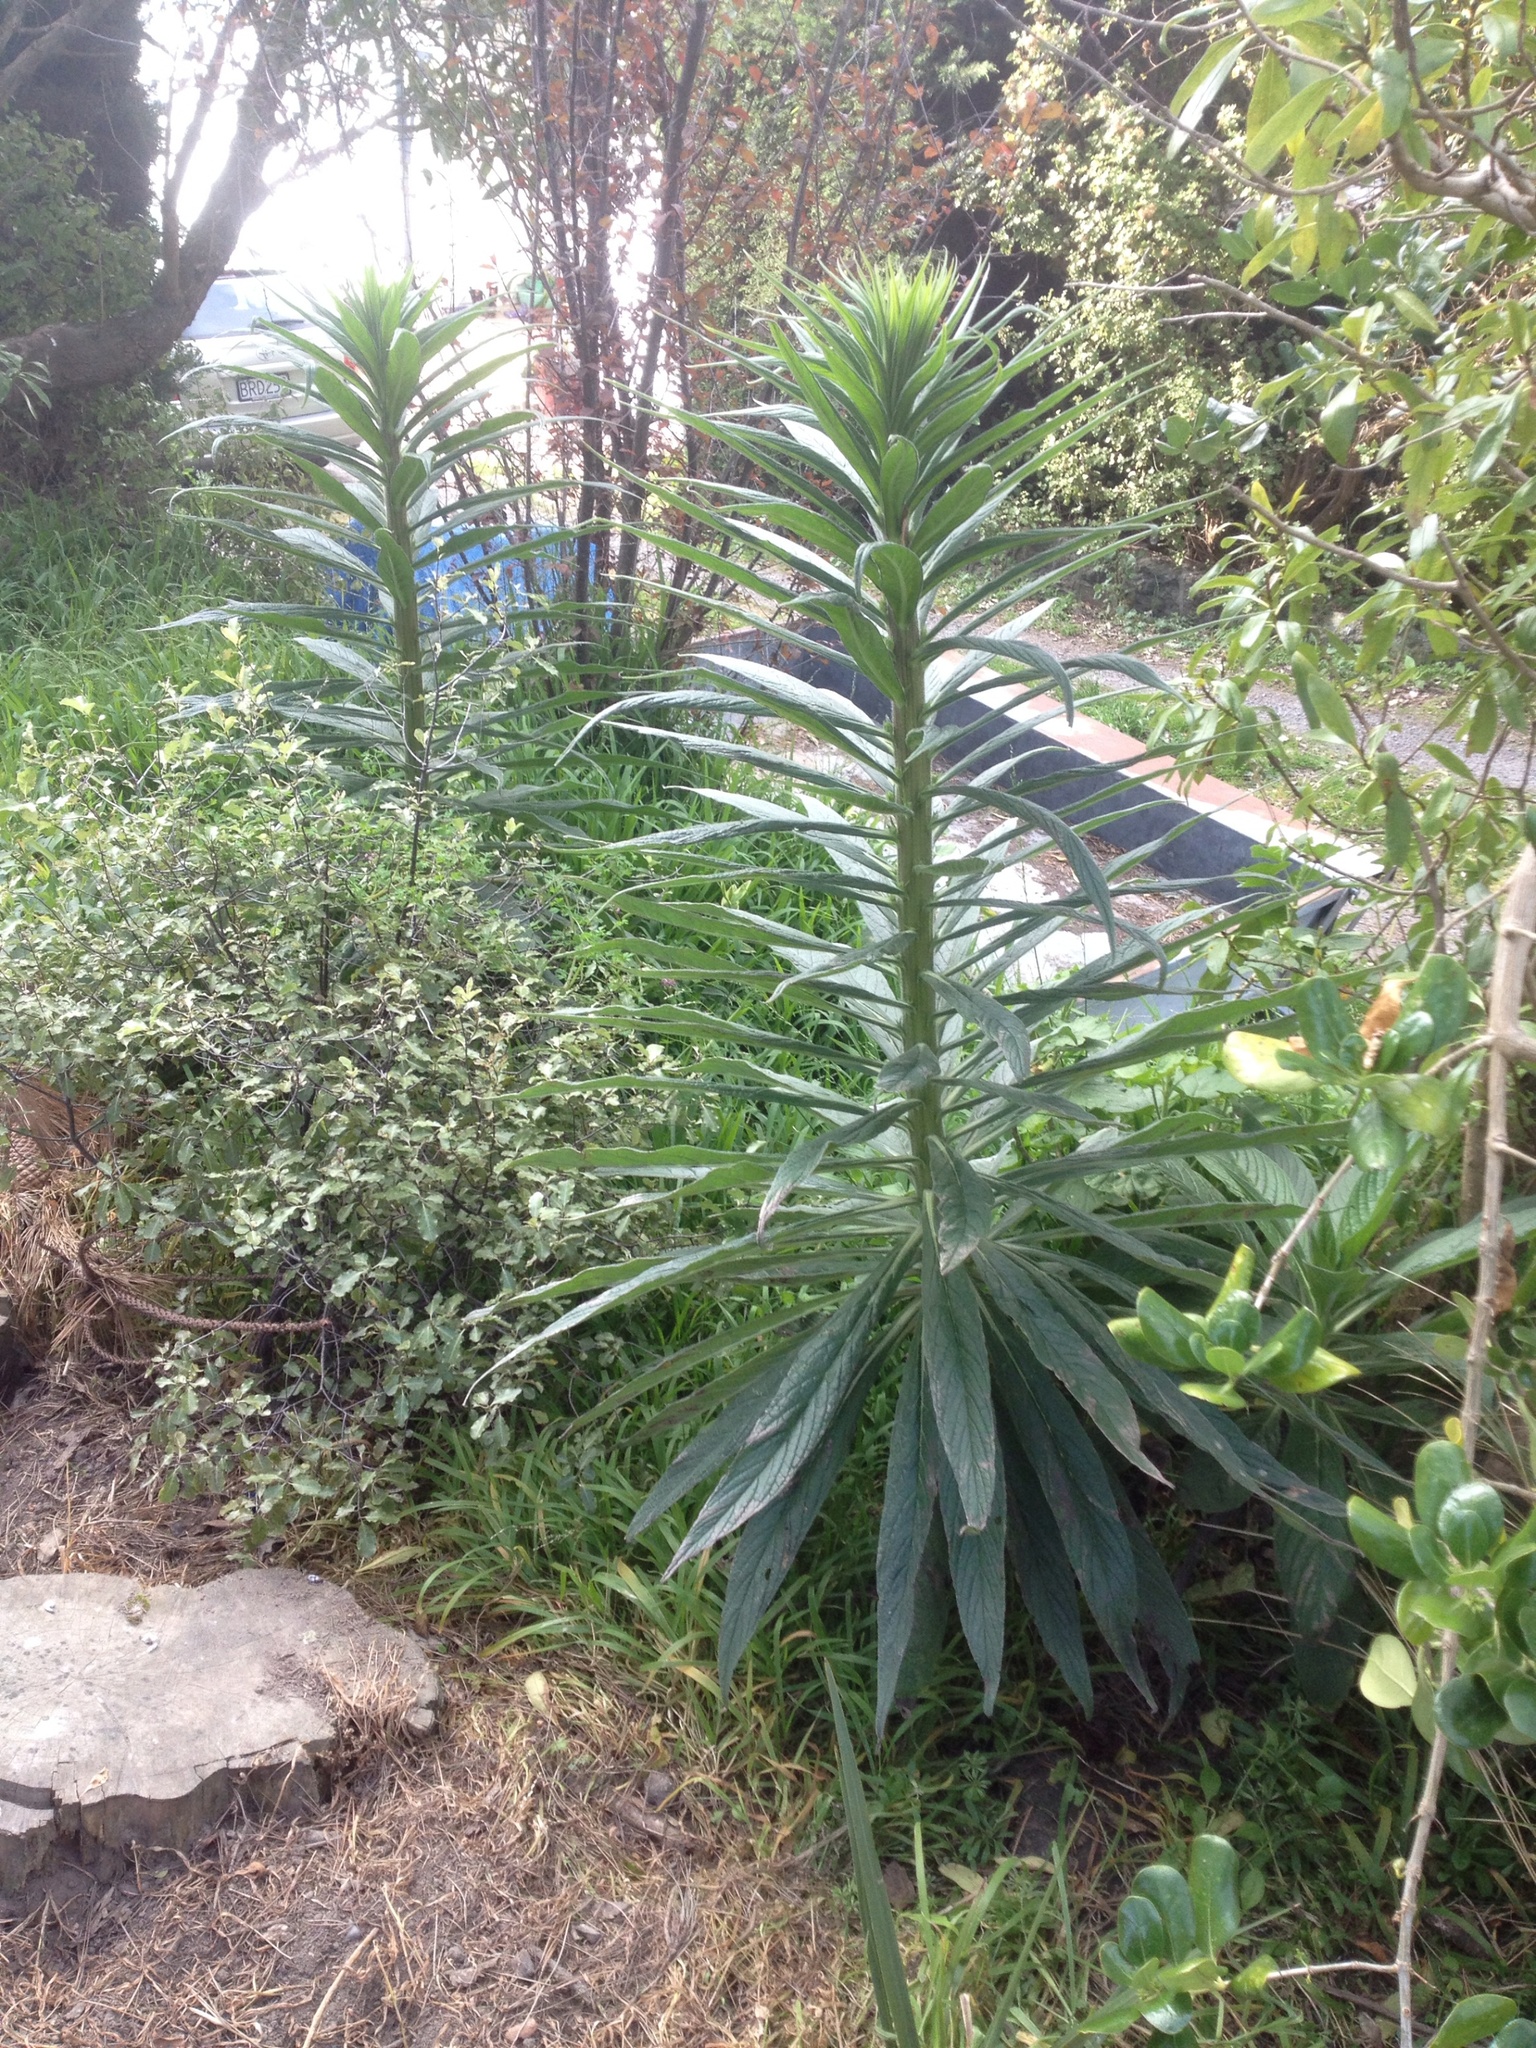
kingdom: Plantae
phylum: Tracheophyta
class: Magnoliopsida
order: Boraginales
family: Boraginaceae
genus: Echium
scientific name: Echium pininana
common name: Giant viper's-bugloss
